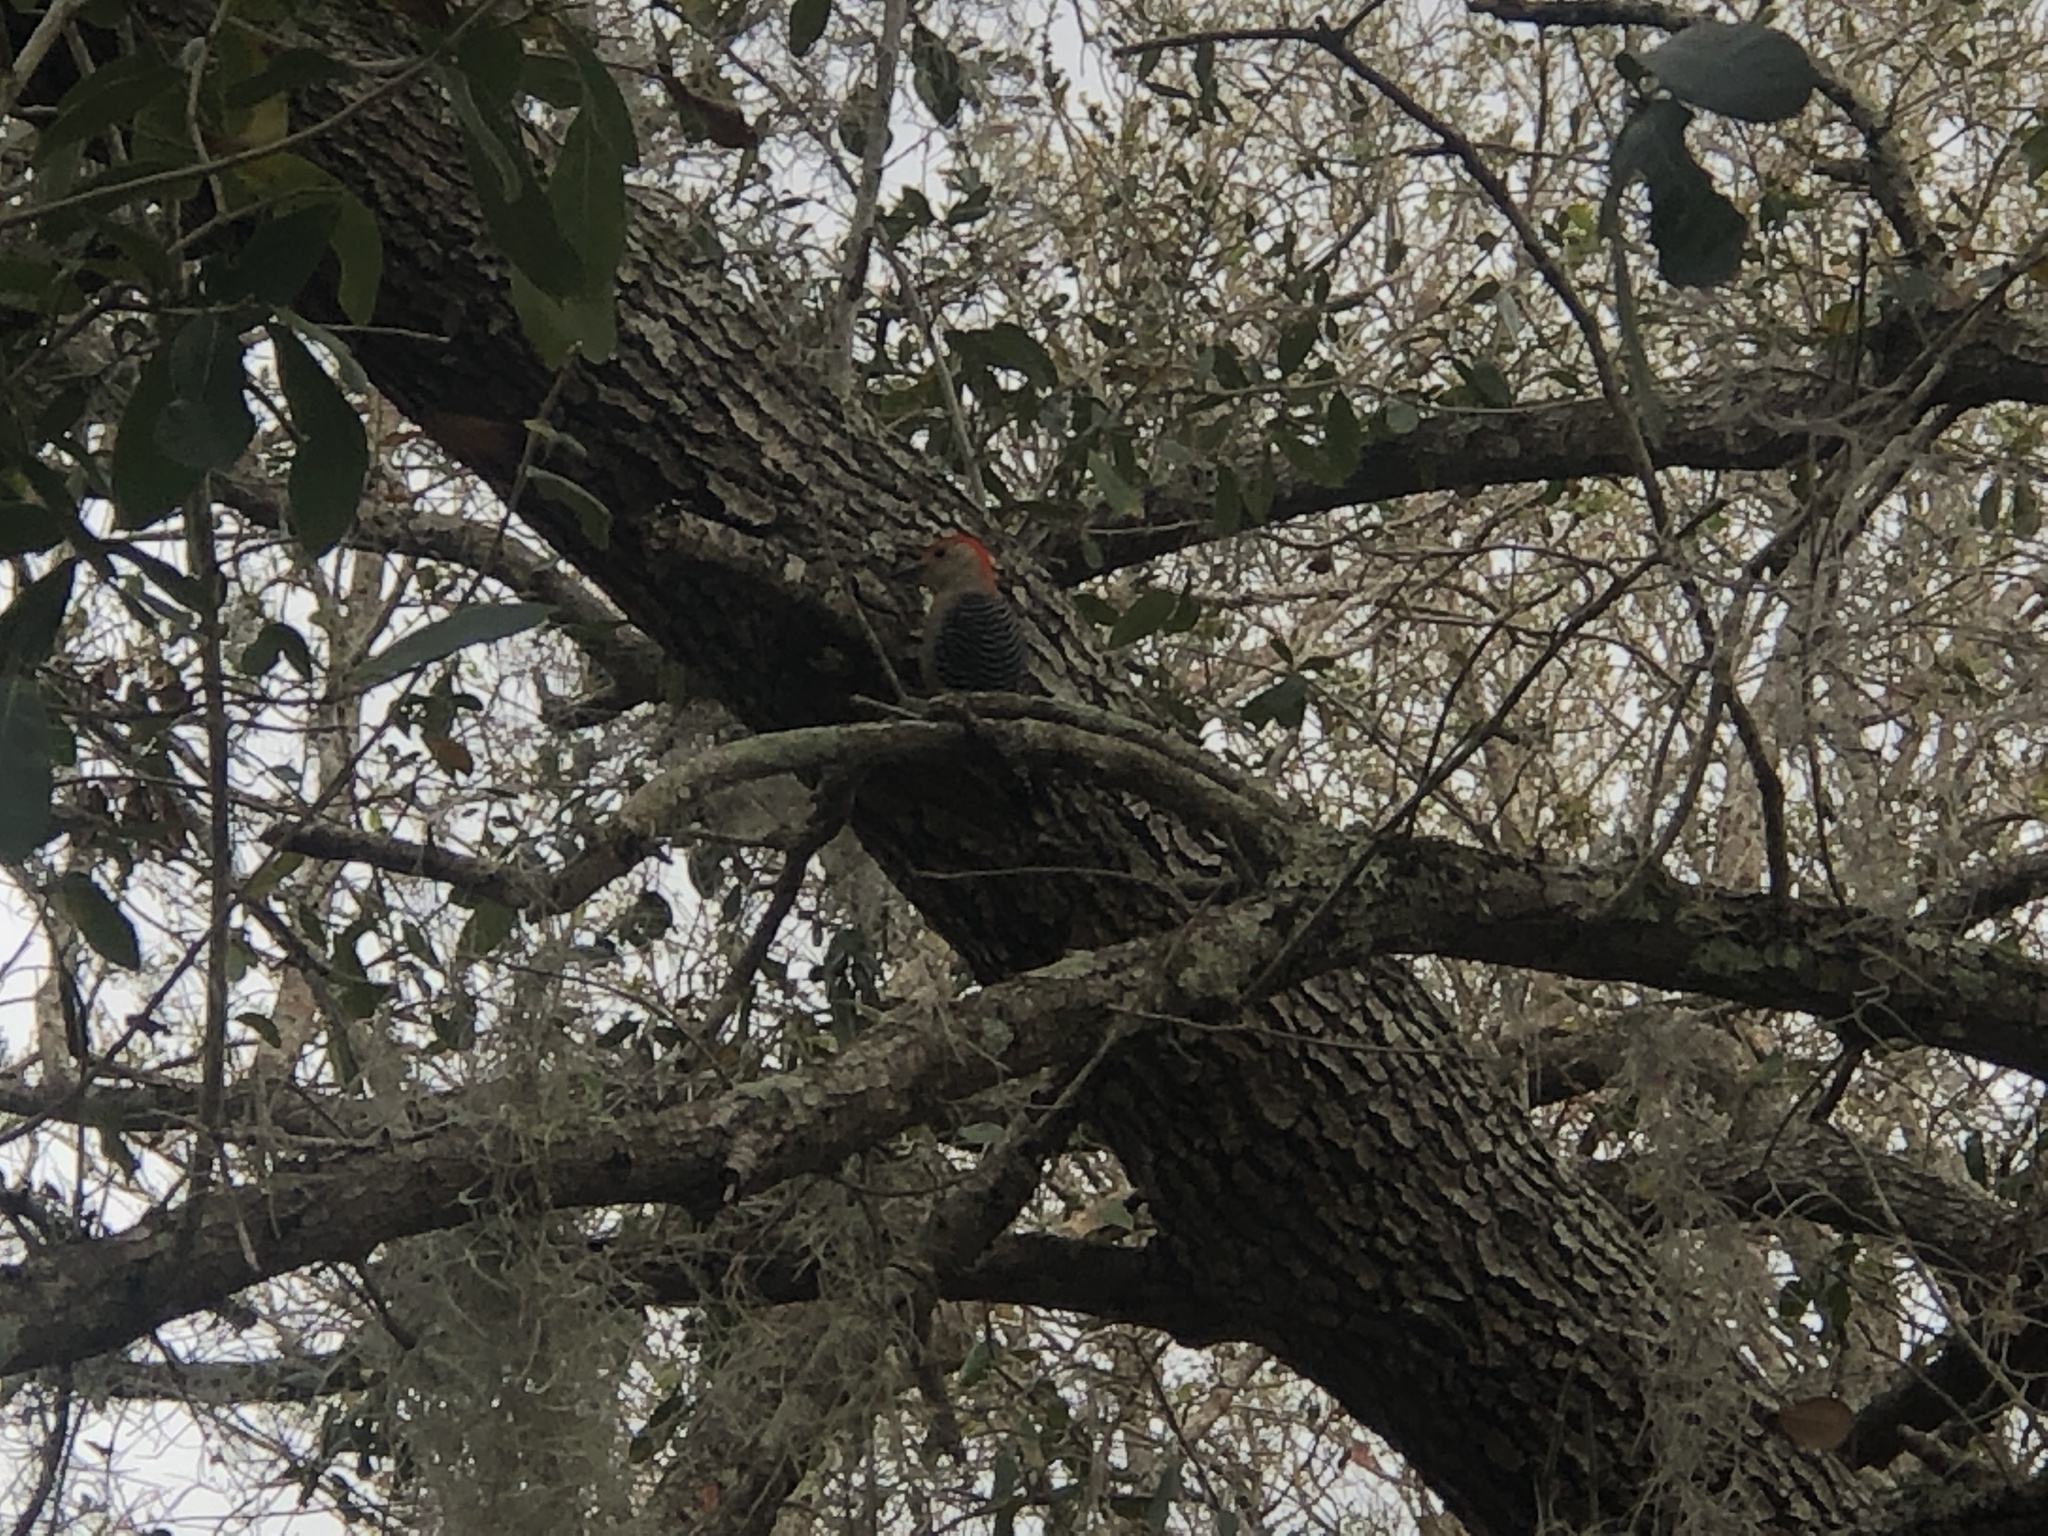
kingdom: Animalia
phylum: Chordata
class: Aves
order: Piciformes
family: Picidae
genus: Melanerpes
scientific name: Melanerpes carolinus
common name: Red-bellied woodpecker
